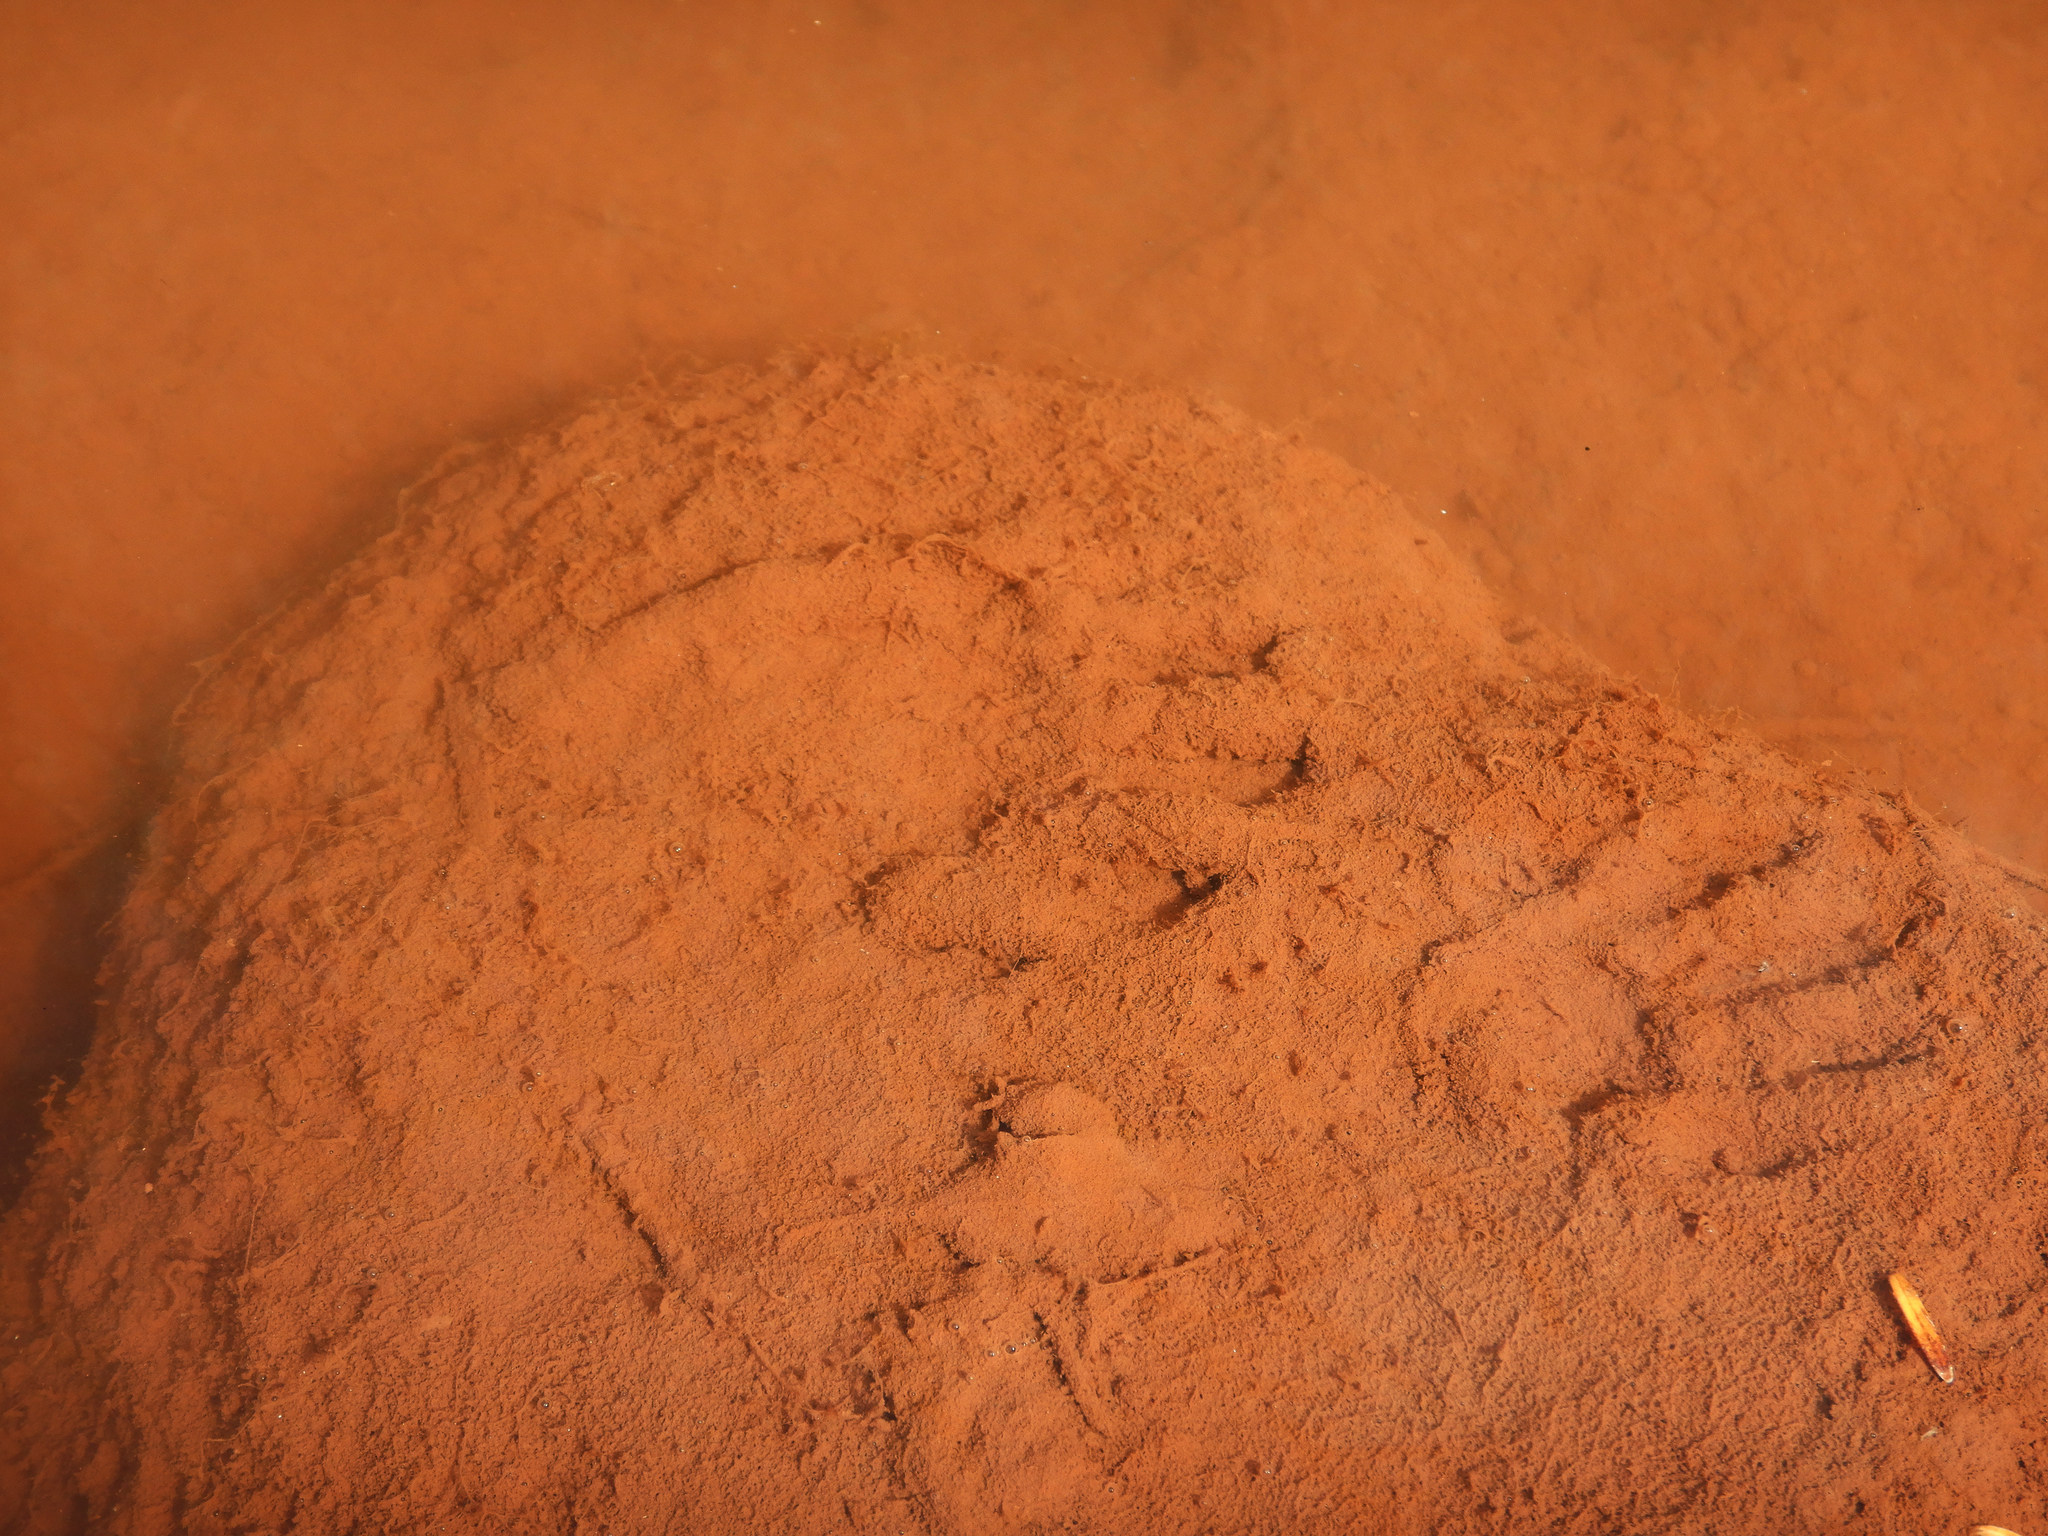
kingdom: Animalia
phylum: Chordata
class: Mammalia
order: Carnivora
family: Procyonidae
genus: Procyon
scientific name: Procyon lotor
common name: Raccoon
